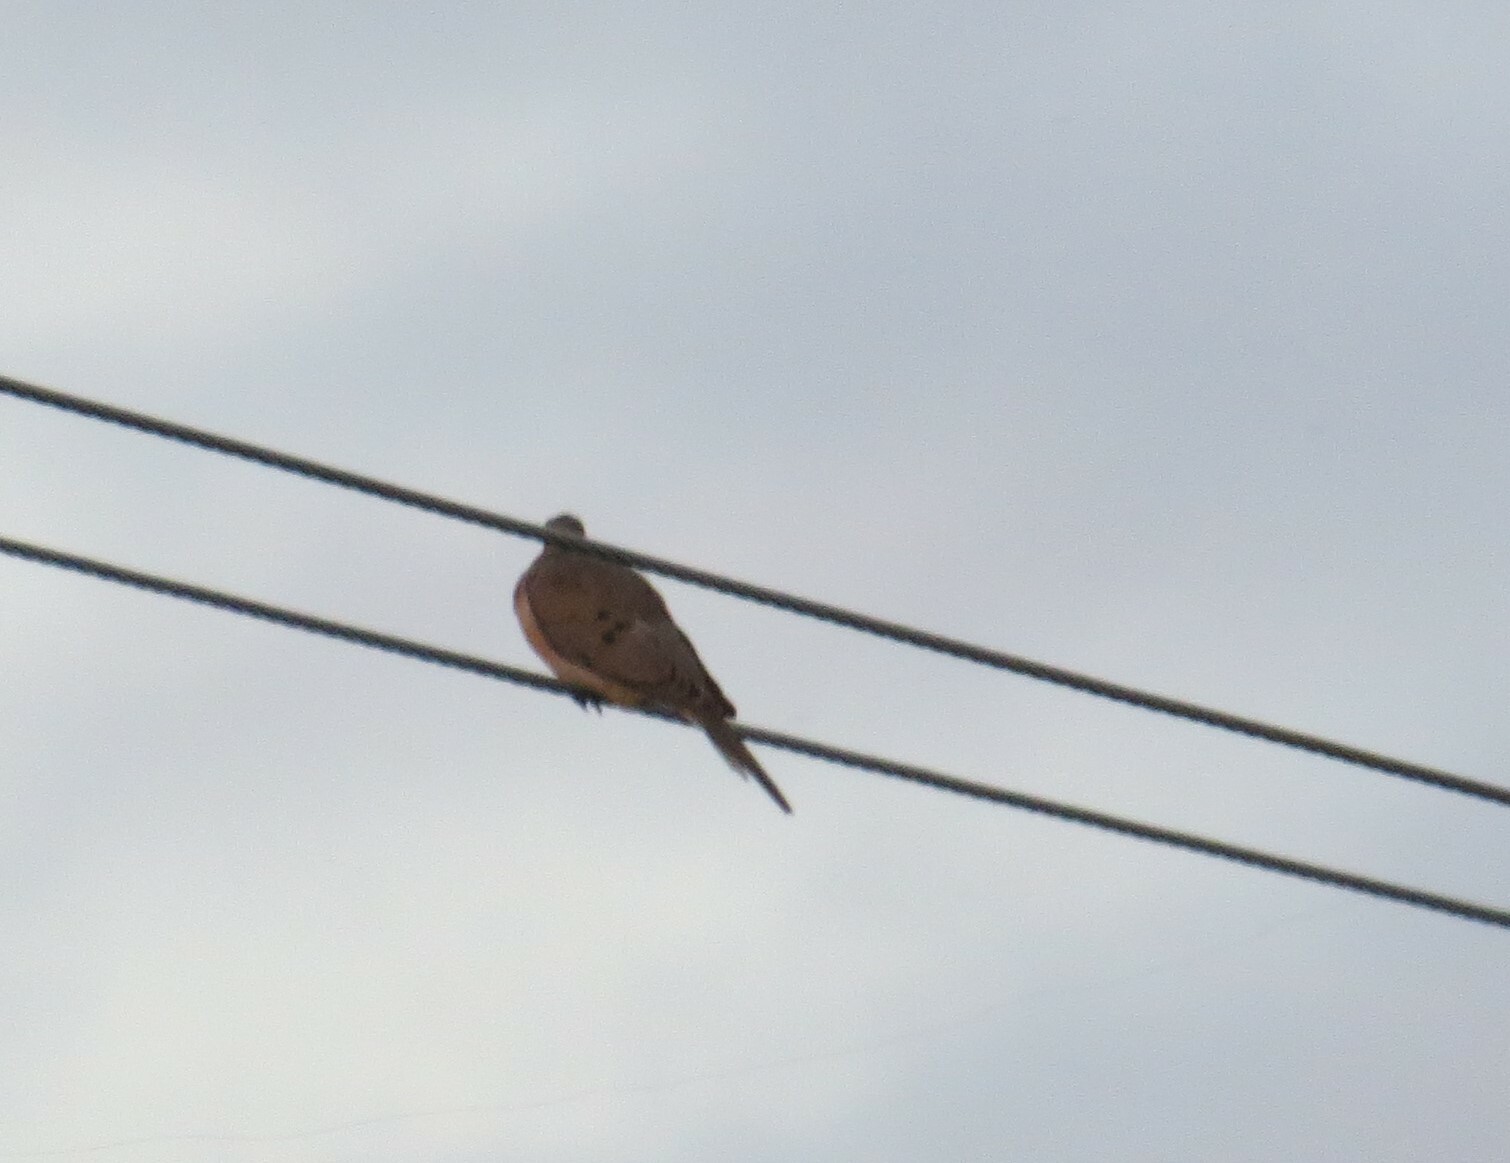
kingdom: Animalia
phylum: Chordata
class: Aves
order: Columbiformes
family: Columbidae
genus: Zenaida
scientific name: Zenaida macroura
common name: Mourning dove
